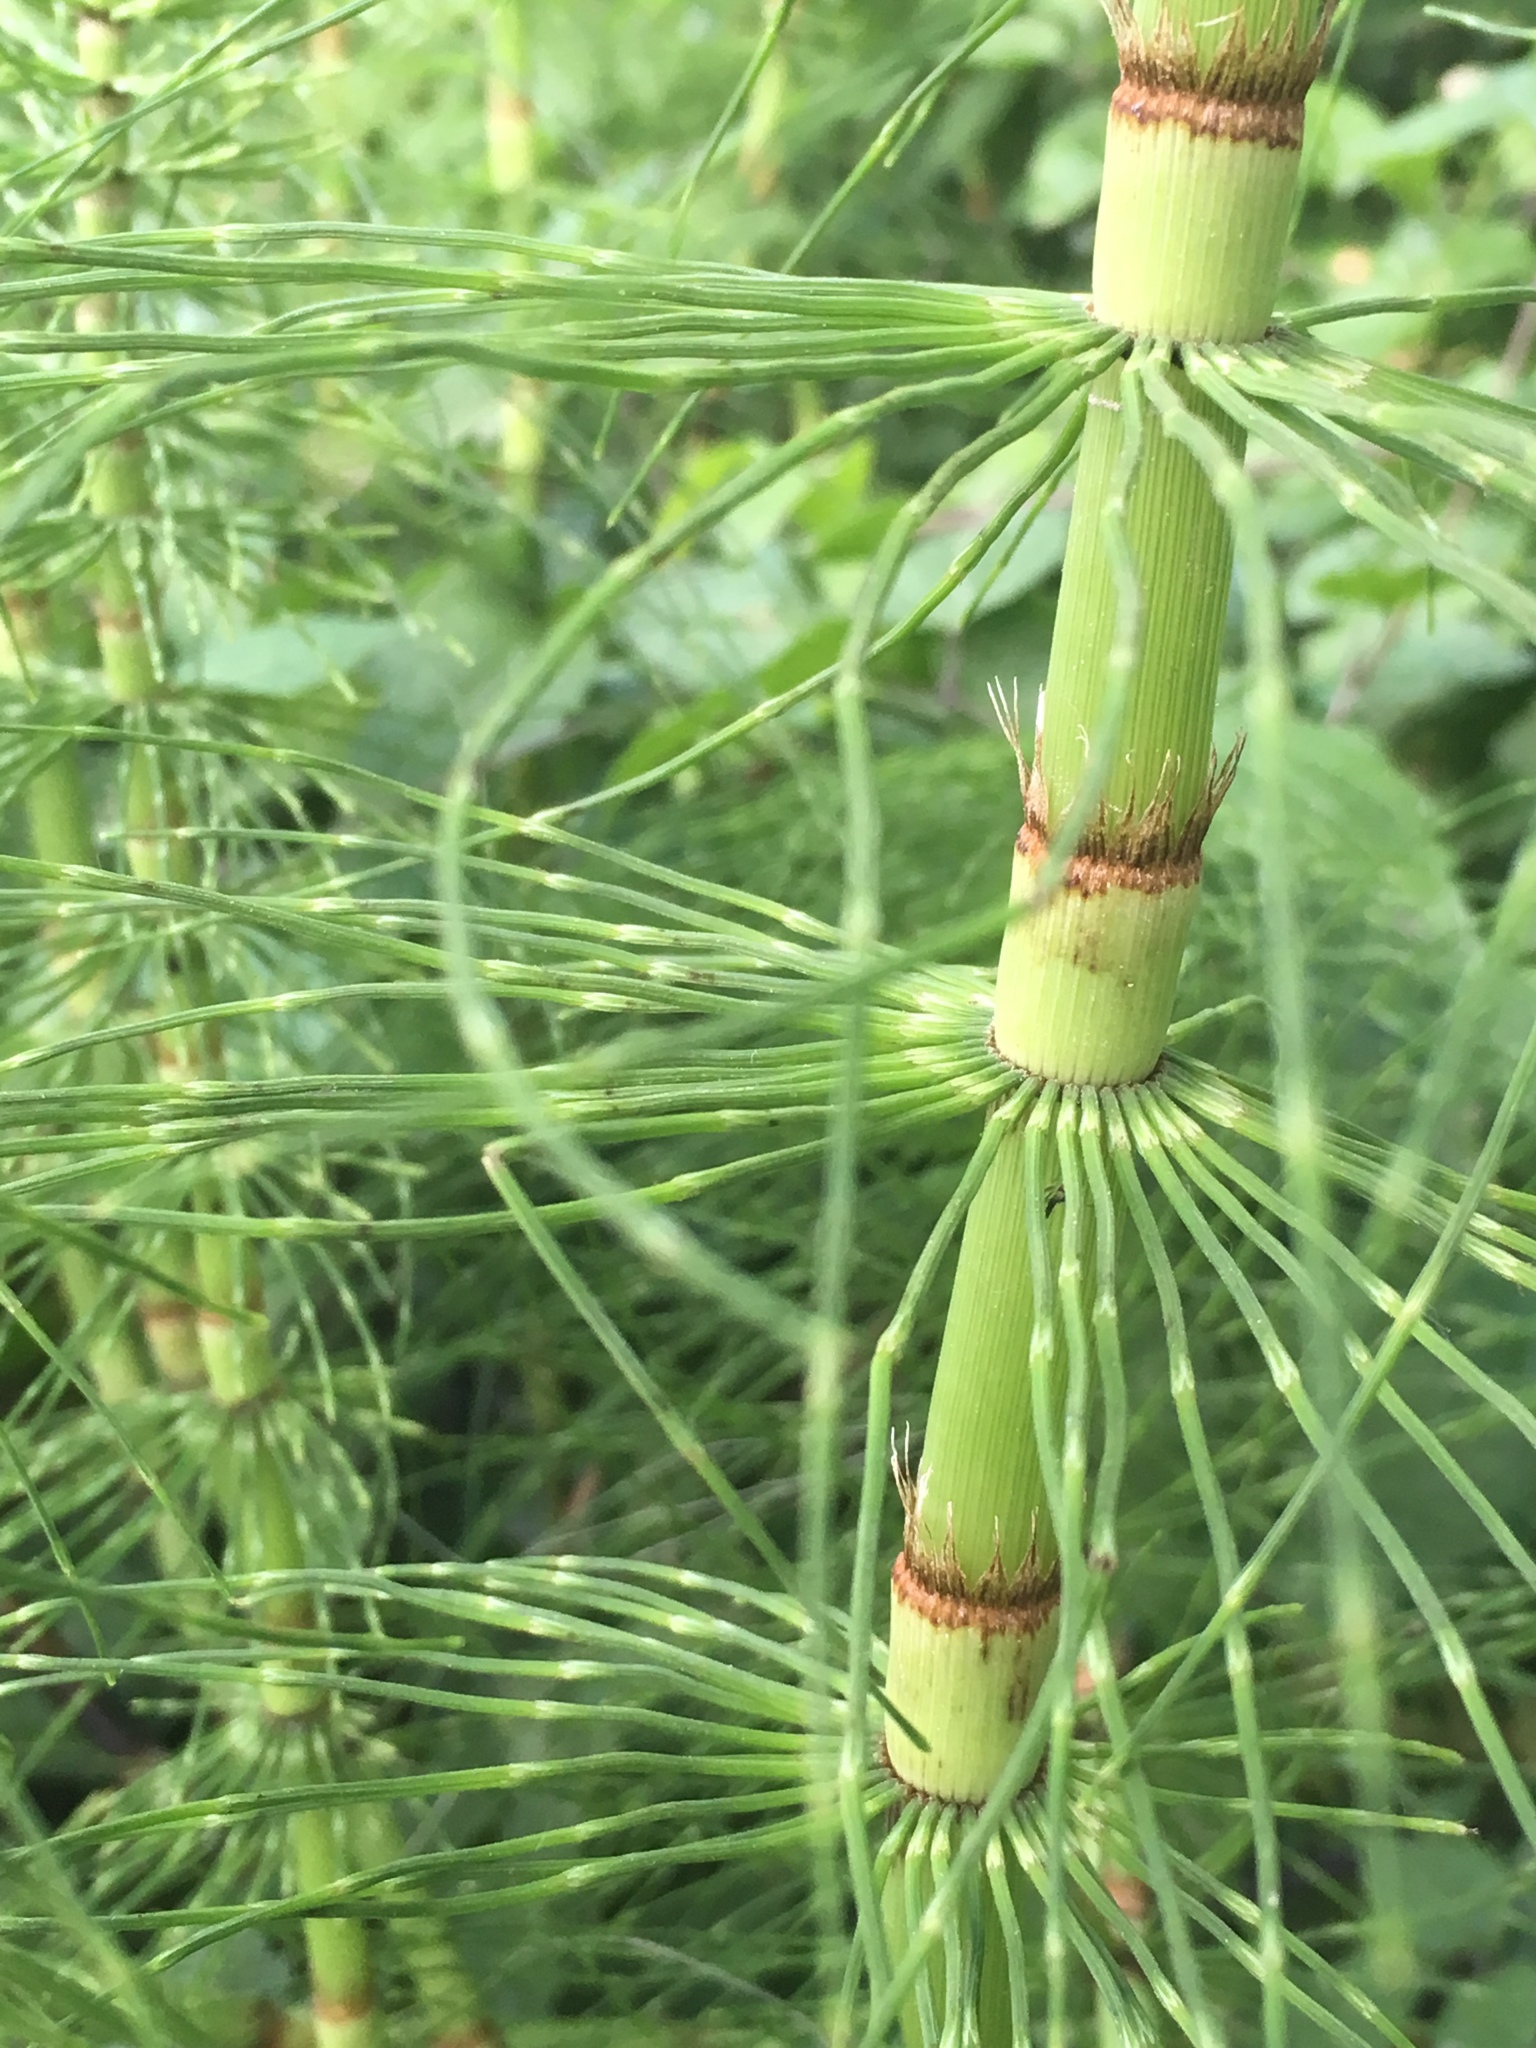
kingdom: Plantae
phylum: Tracheophyta
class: Polypodiopsida
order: Equisetales
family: Equisetaceae
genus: Equisetum
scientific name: Equisetum braunii
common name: Braun's horsetail
